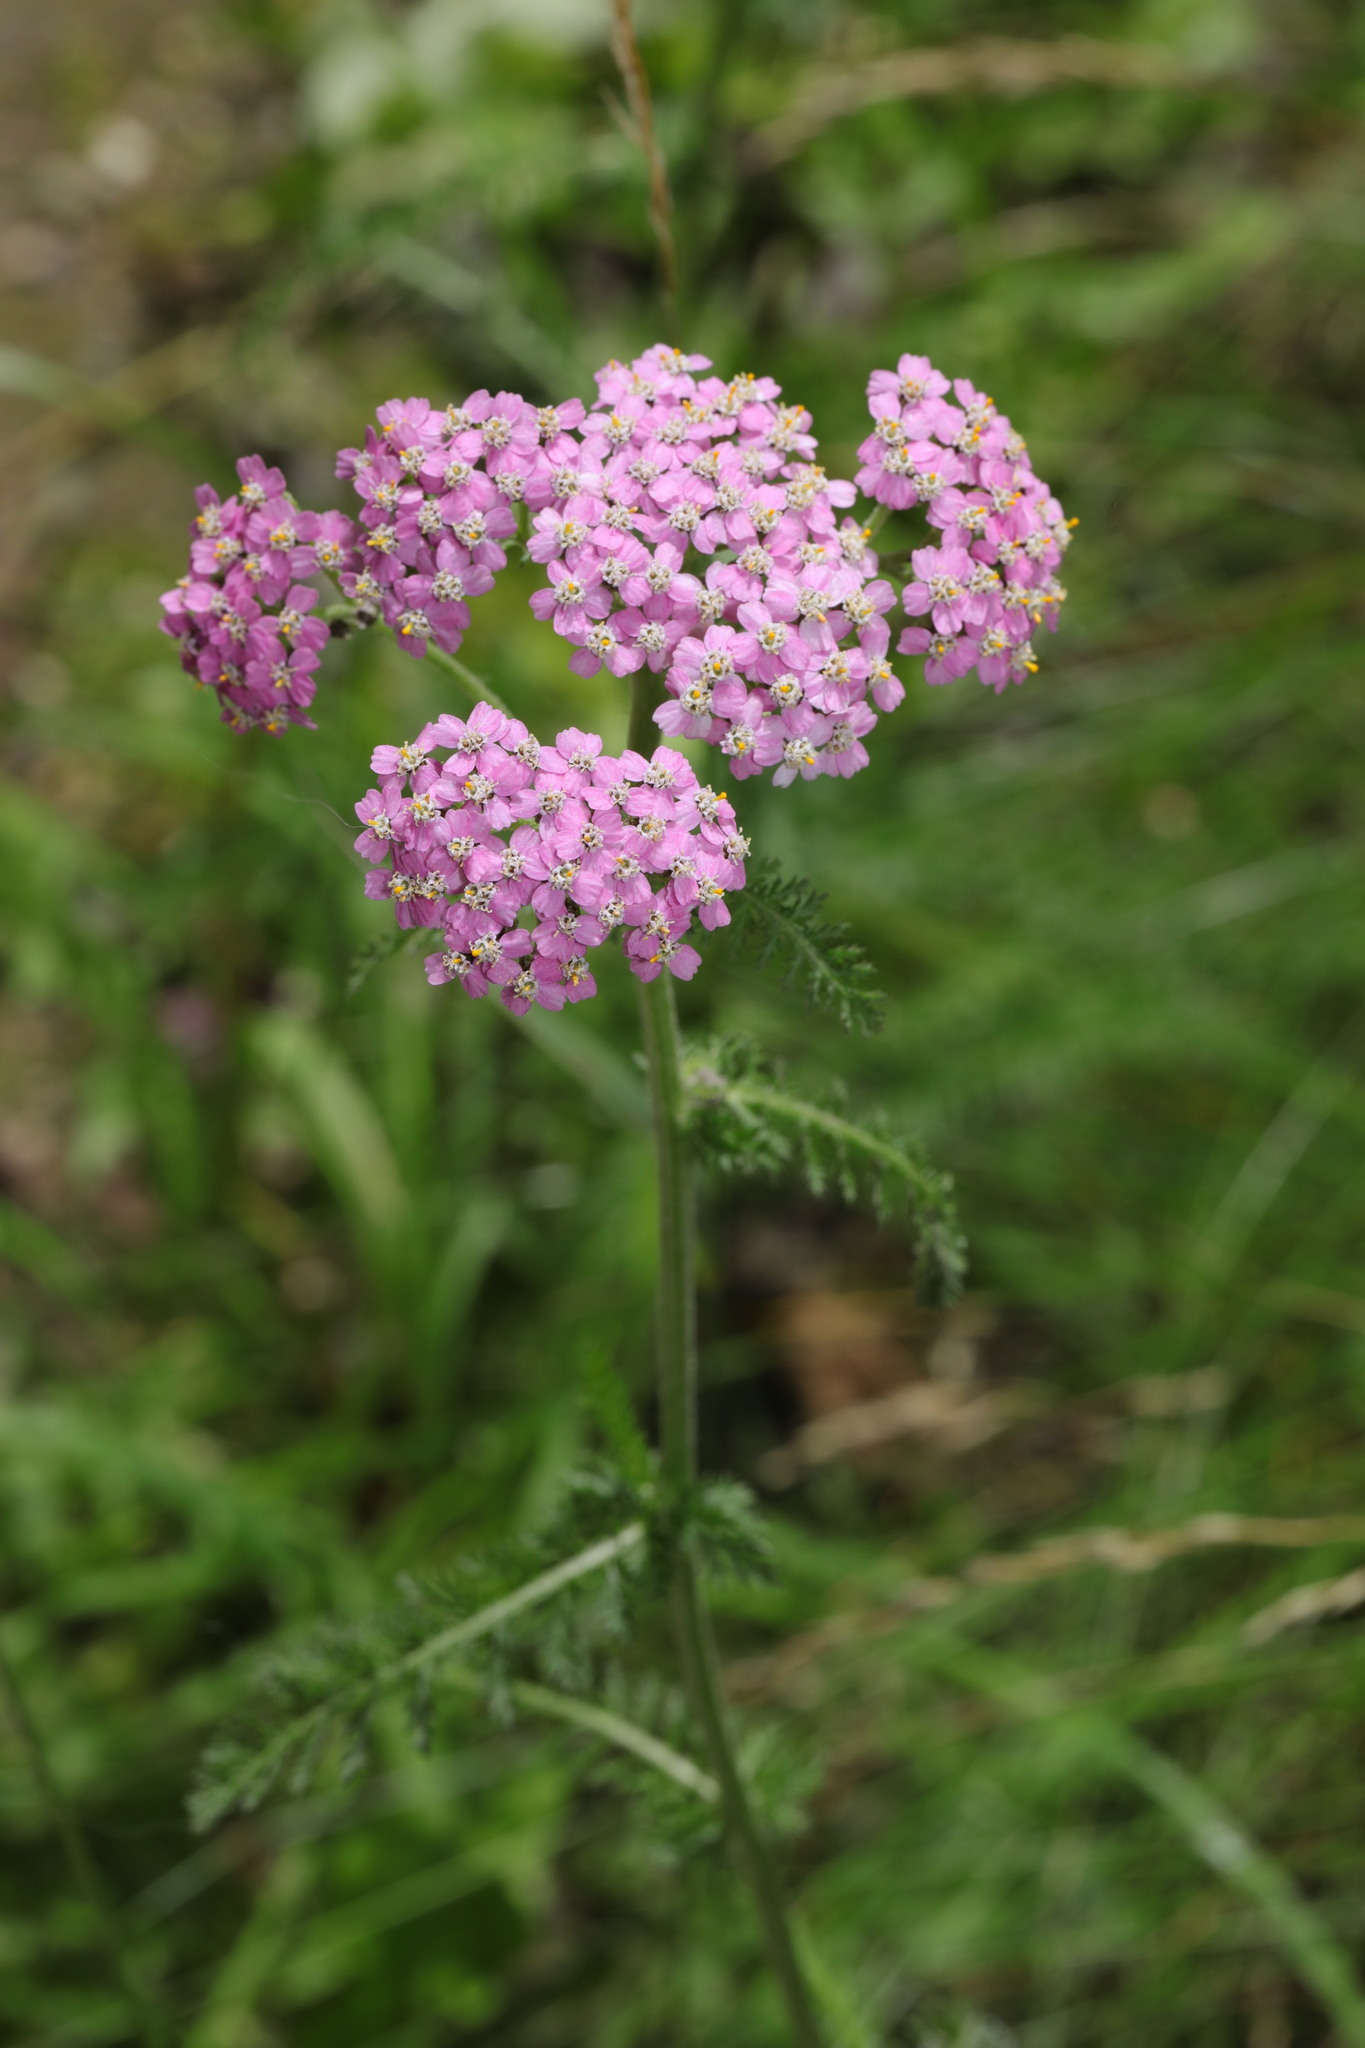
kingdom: Plantae
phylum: Tracheophyta
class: Magnoliopsida
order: Asterales
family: Asteraceae
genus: Achillea
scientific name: Achillea millefolium
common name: Yarrow
